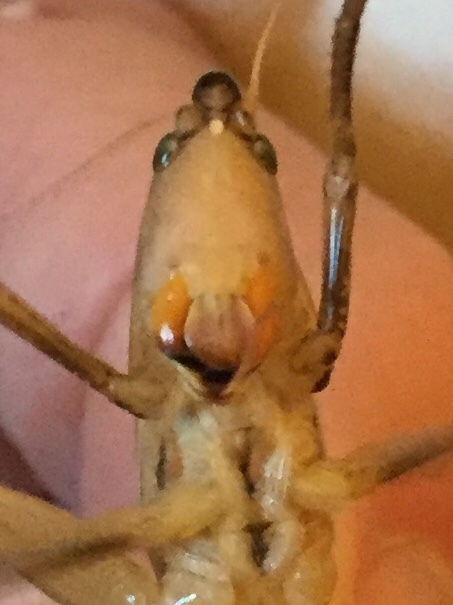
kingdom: Animalia
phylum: Arthropoda
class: Insecta
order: Orthoptera
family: Tettigoniidae
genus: Neoconocephalus
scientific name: Neoconocephalus triops
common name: Broad-tipped conehead
